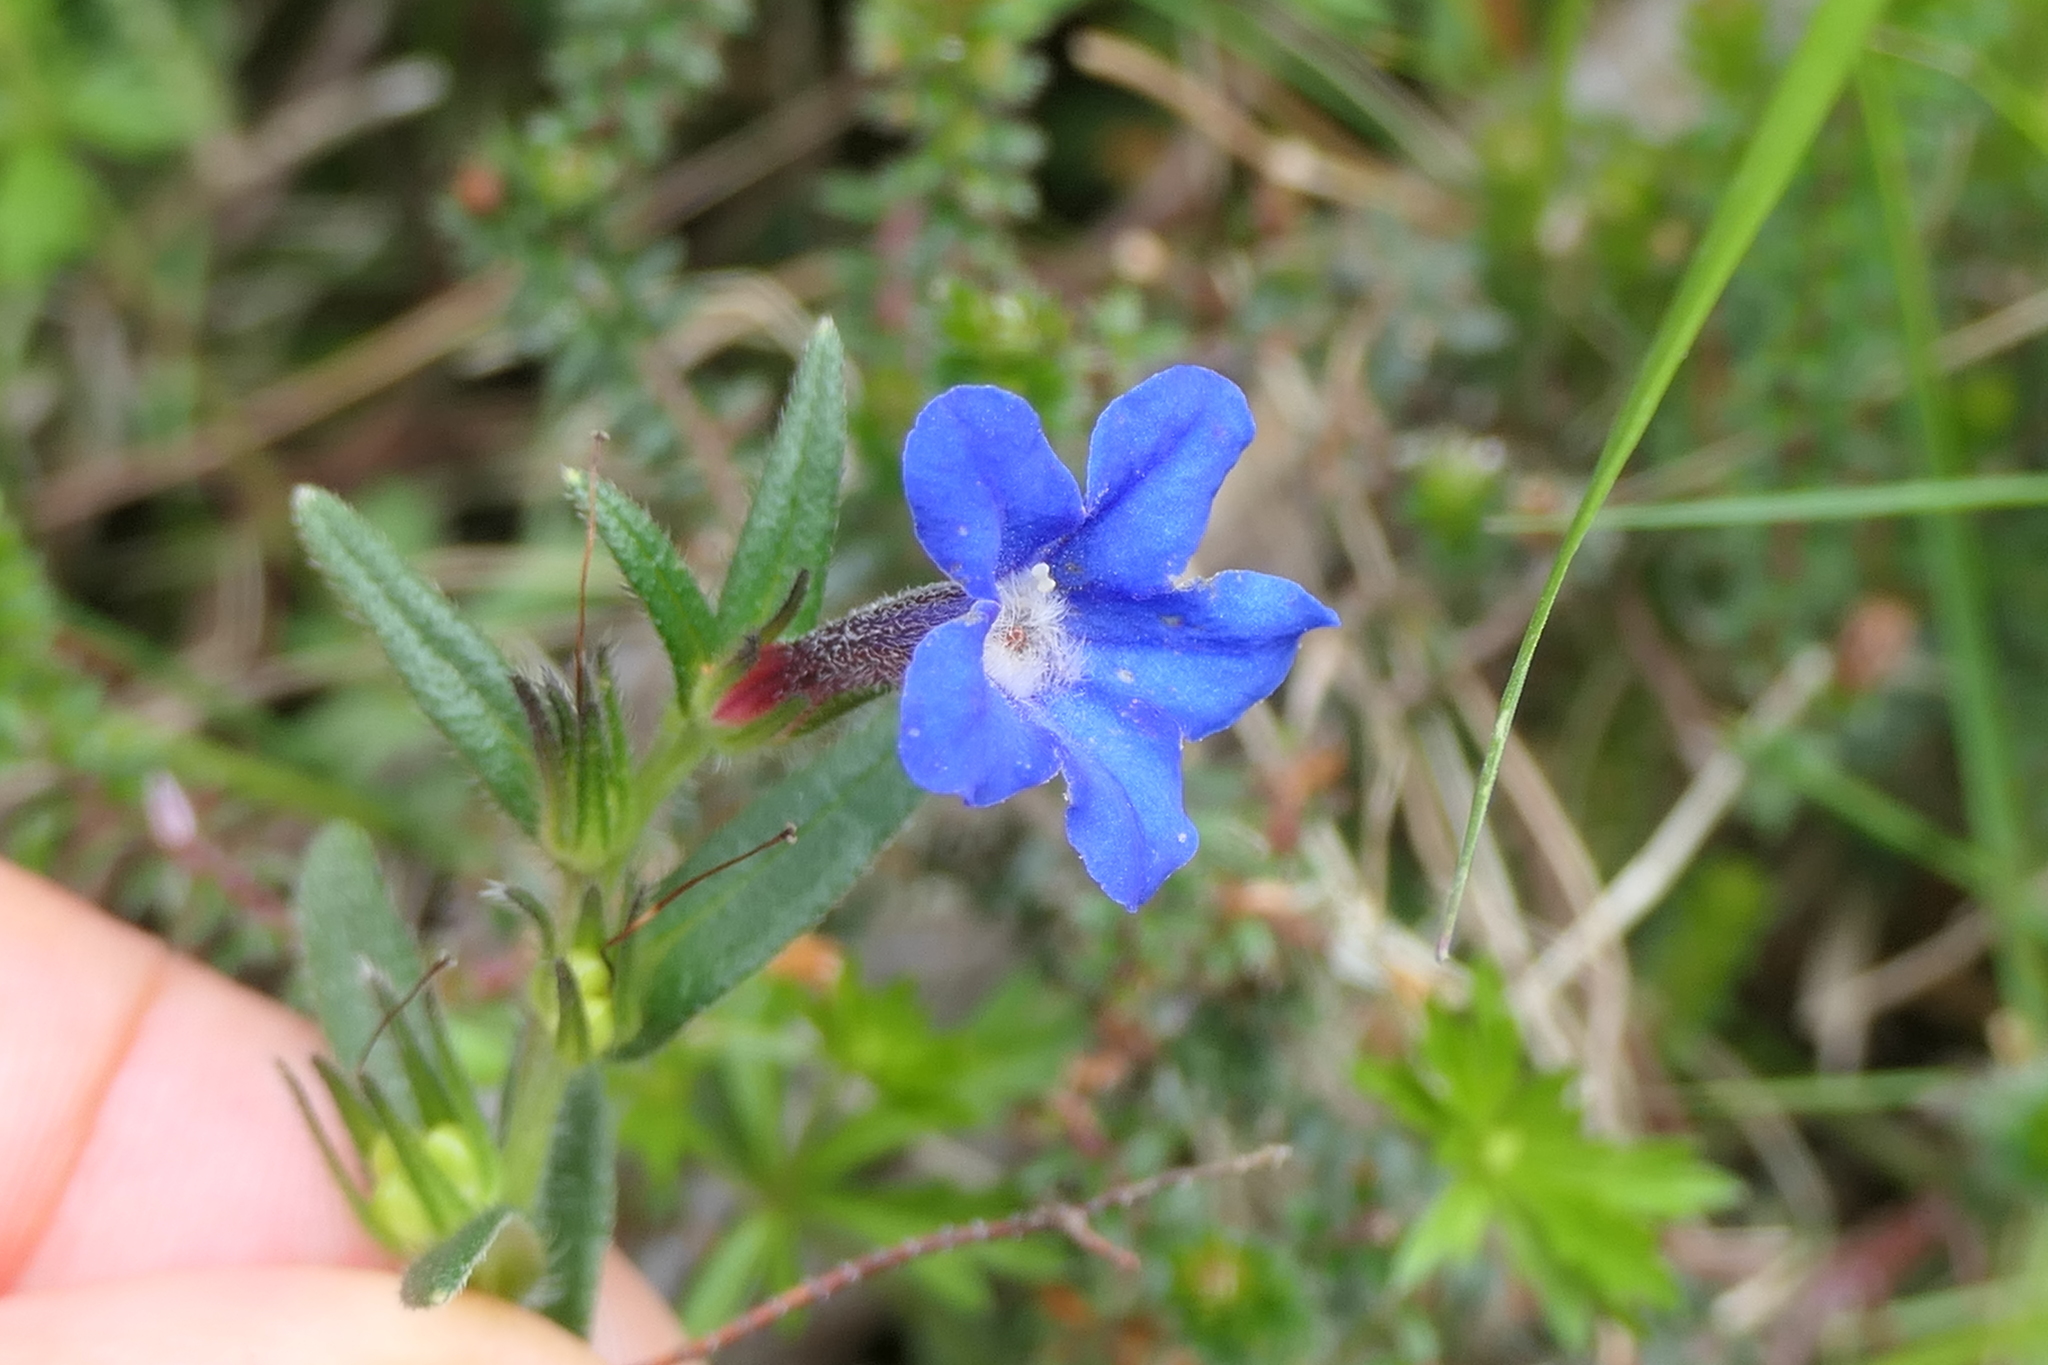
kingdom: Plantae
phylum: Tracheophyta
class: Magnoliopsida
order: Boraginales
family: Boraginaceae
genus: Glandora
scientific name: Glandora prostrata
